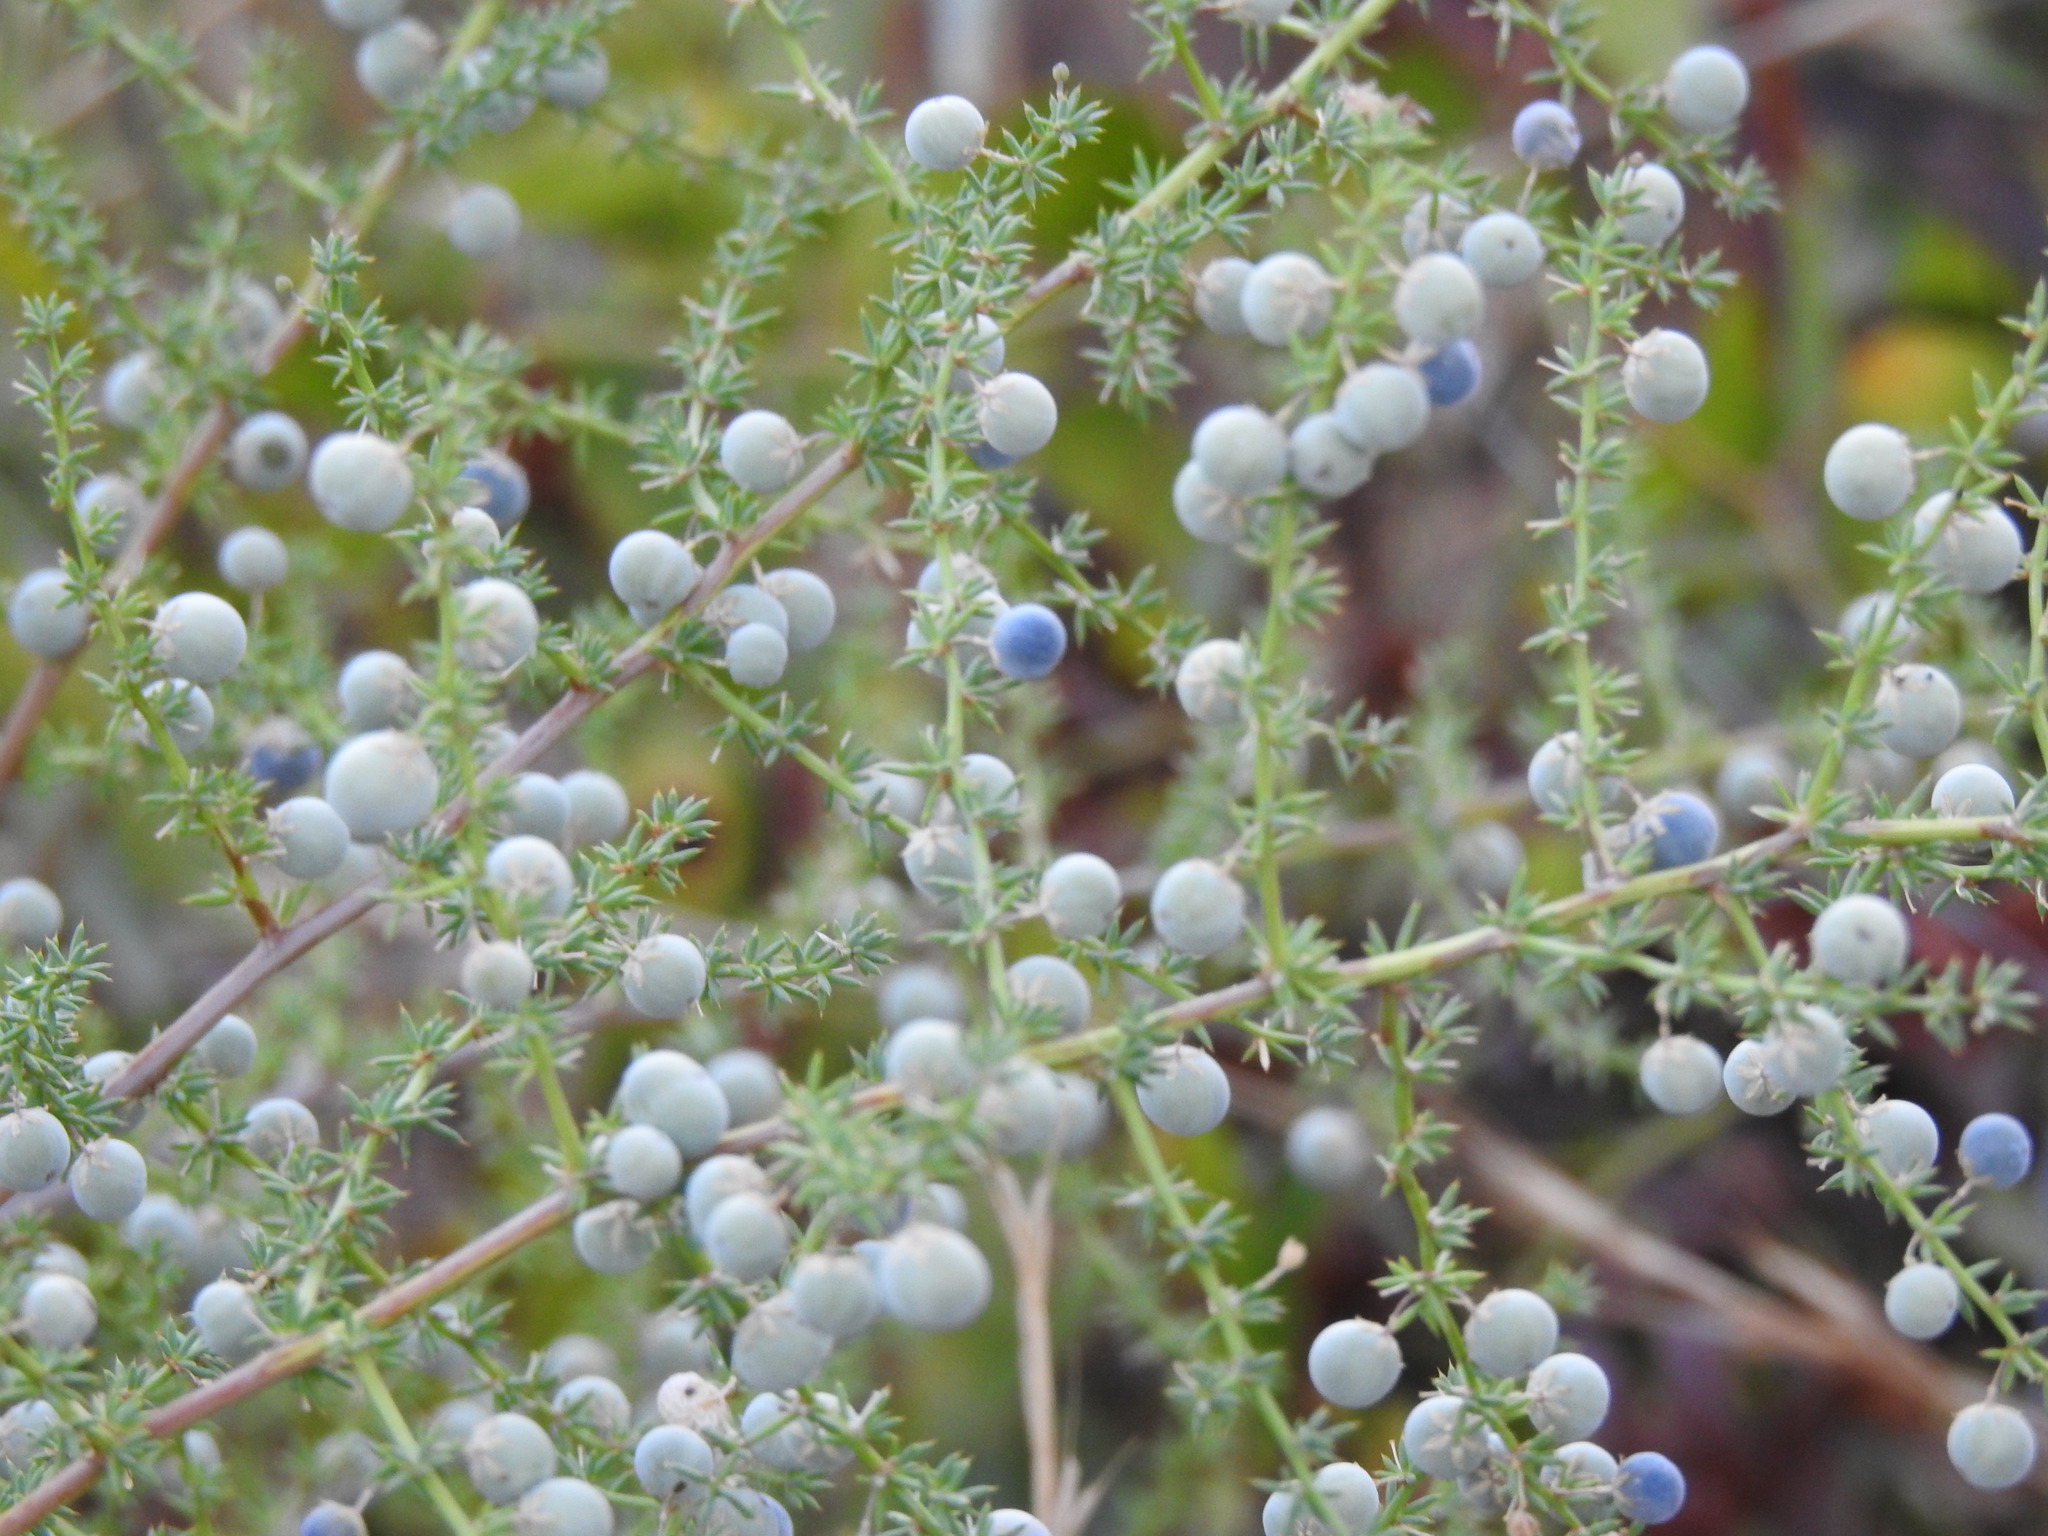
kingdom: Plantae
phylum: Tracheophyta
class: Liliopsida
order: Asparagales
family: Asparagaceae
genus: Asparagus
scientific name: Asparagus acutifolius
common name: Wild asparagus
